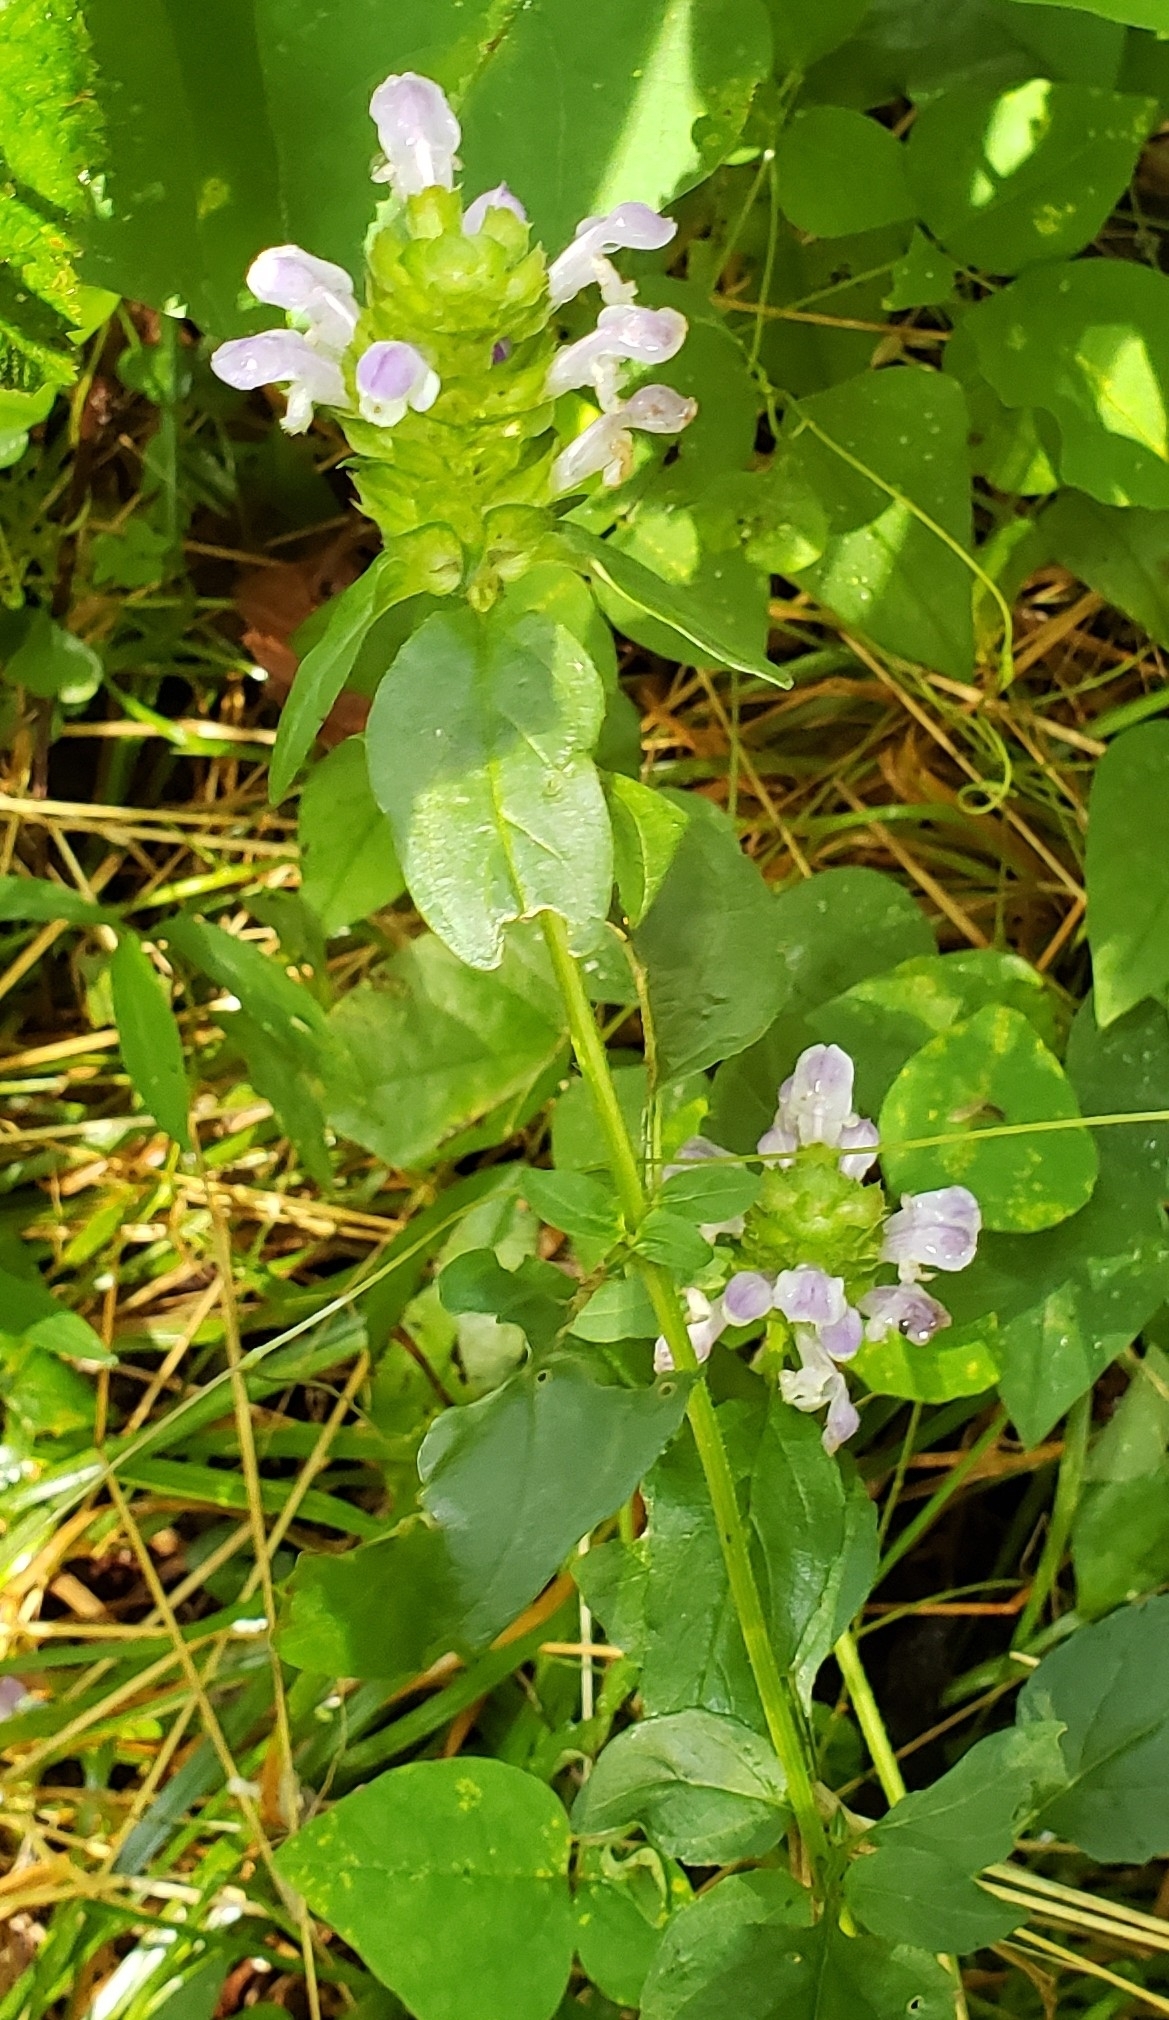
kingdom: Plantae
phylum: Tracheophyta
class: Magnoliopsida
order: Lamiales
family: Lamiaceae
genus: Prunella
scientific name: Prunella vulgaris
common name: Heal-all
